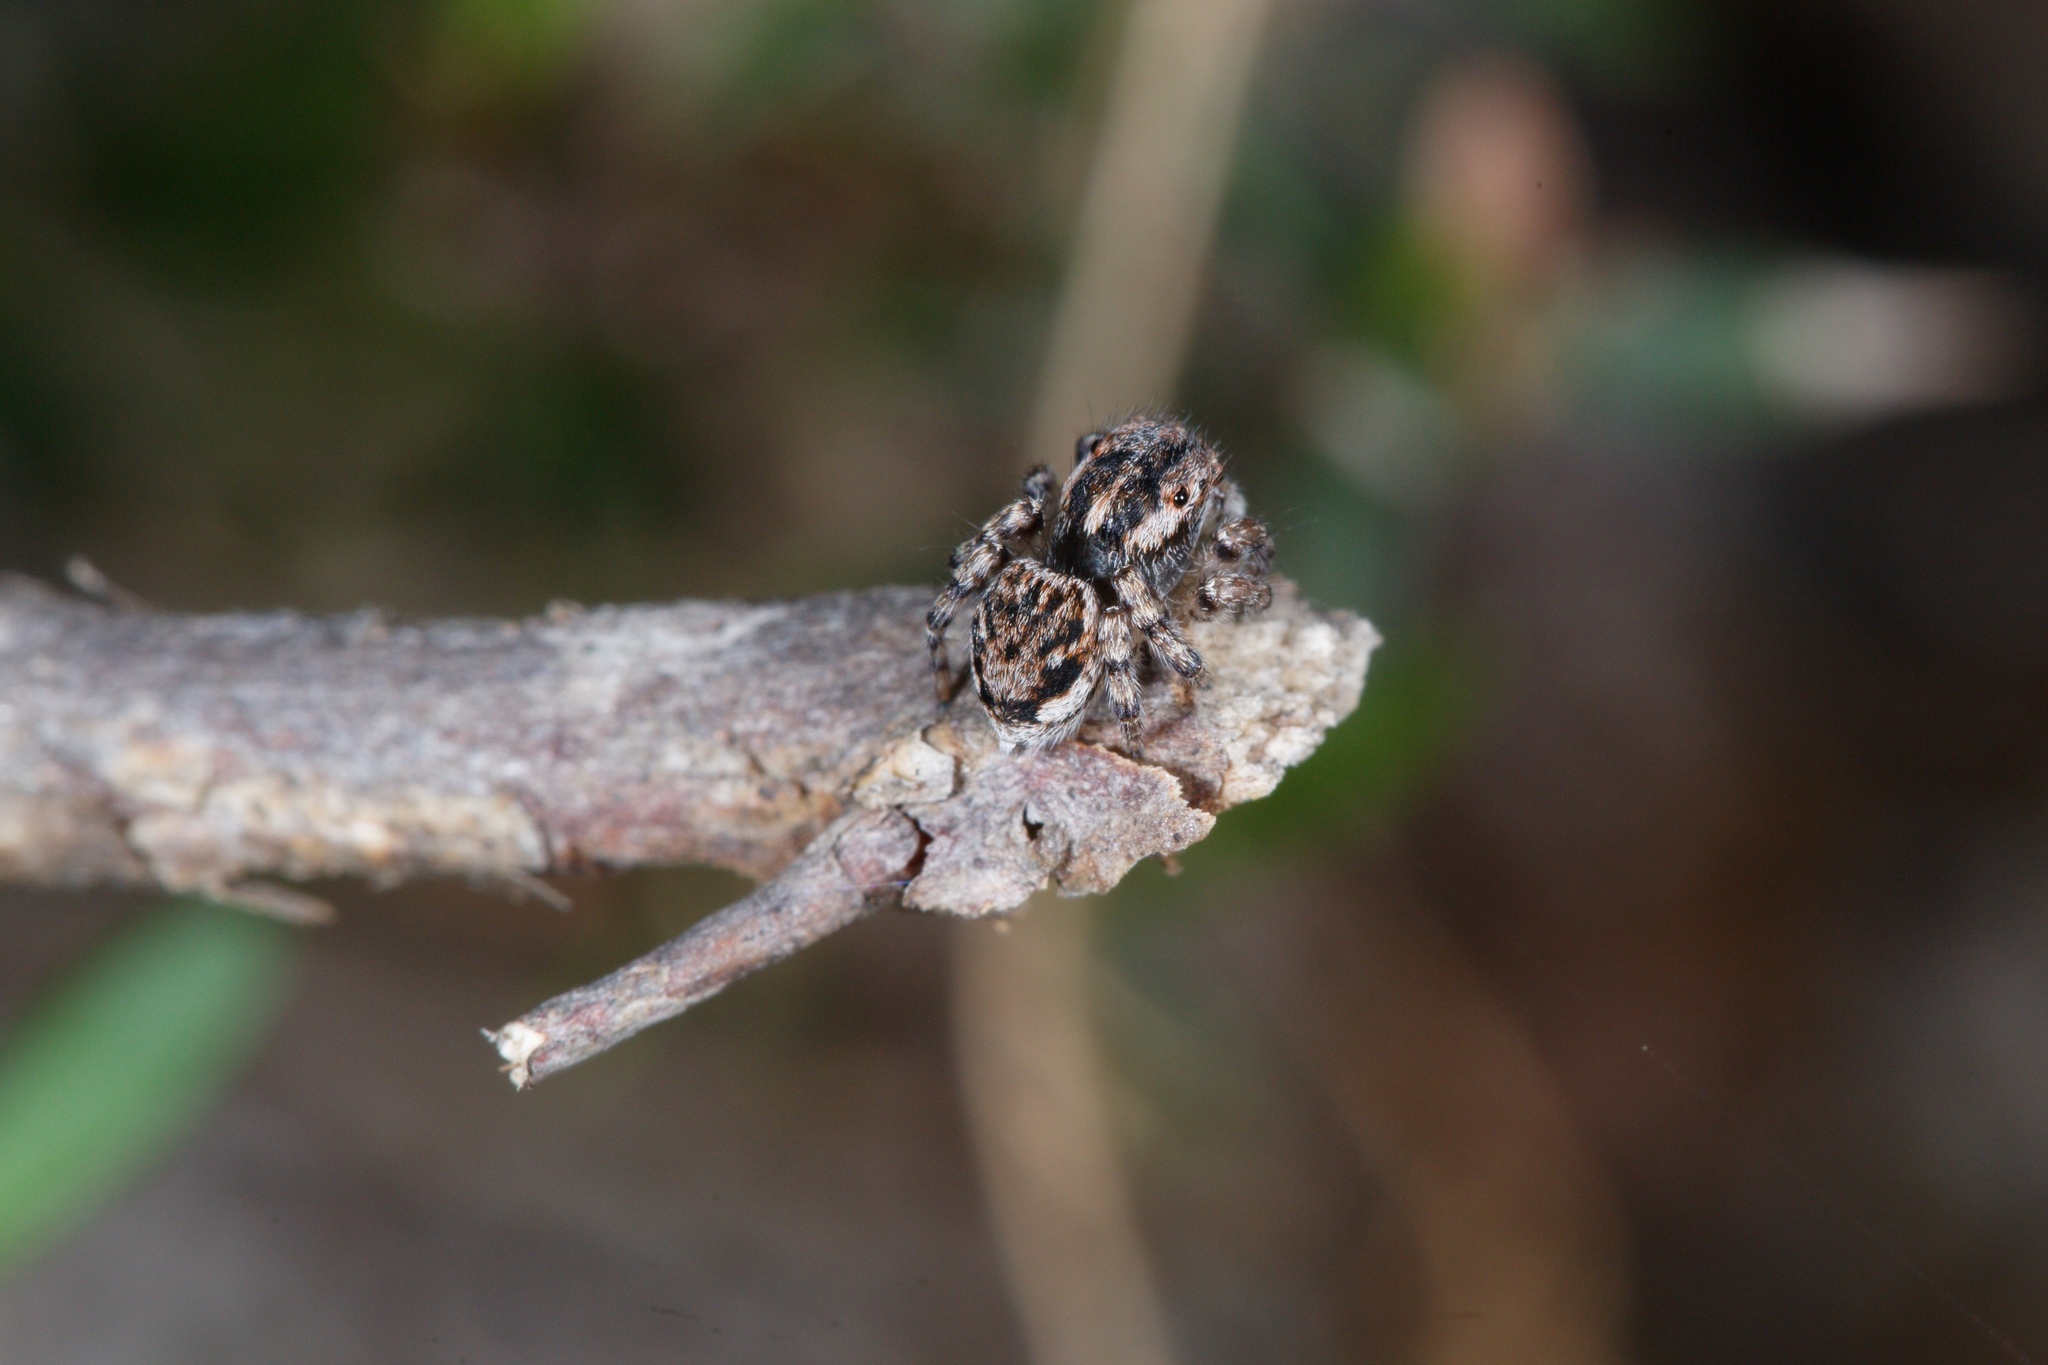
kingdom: Animalia
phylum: Arthropoda
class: Arachnida
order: Araneae
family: Salticidae
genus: Maratus
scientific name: Maratus plumosus
